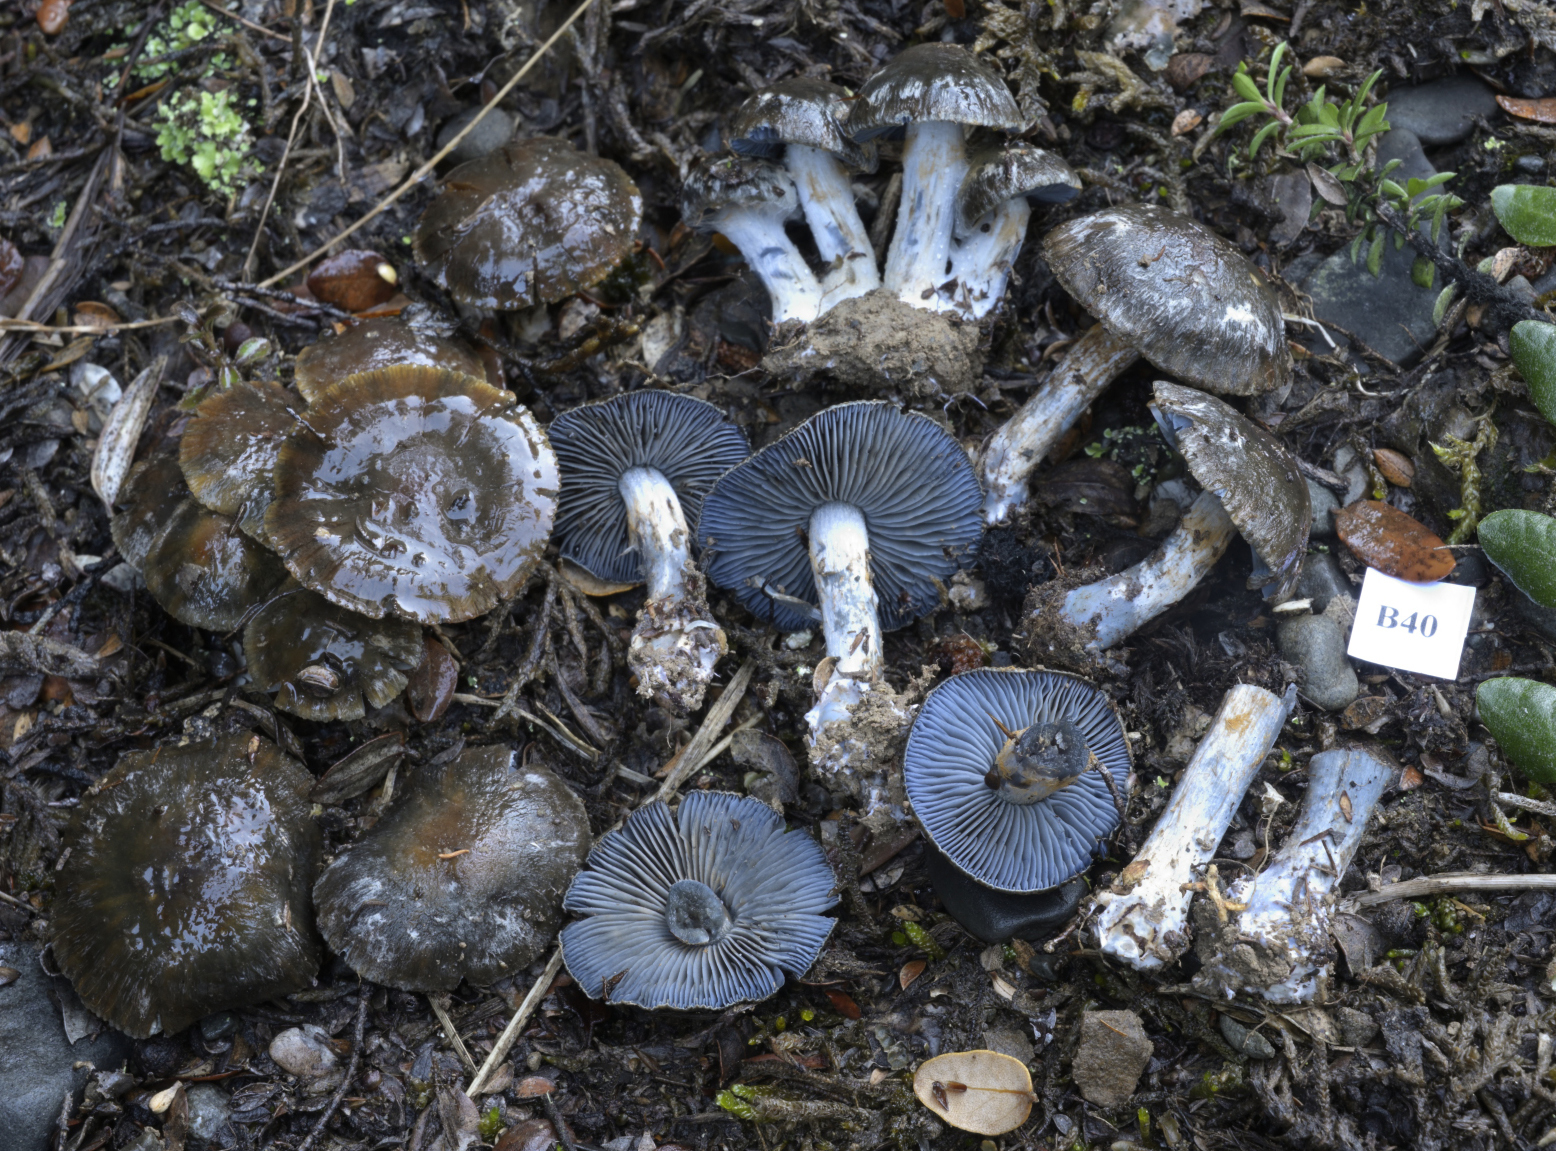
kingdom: Fungi
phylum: Basidiomycota
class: Agaricomycetes
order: Agaricales
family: Cortinariaceae
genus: Thaxterogaster
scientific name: Thaxterogaster rhipiduranus
